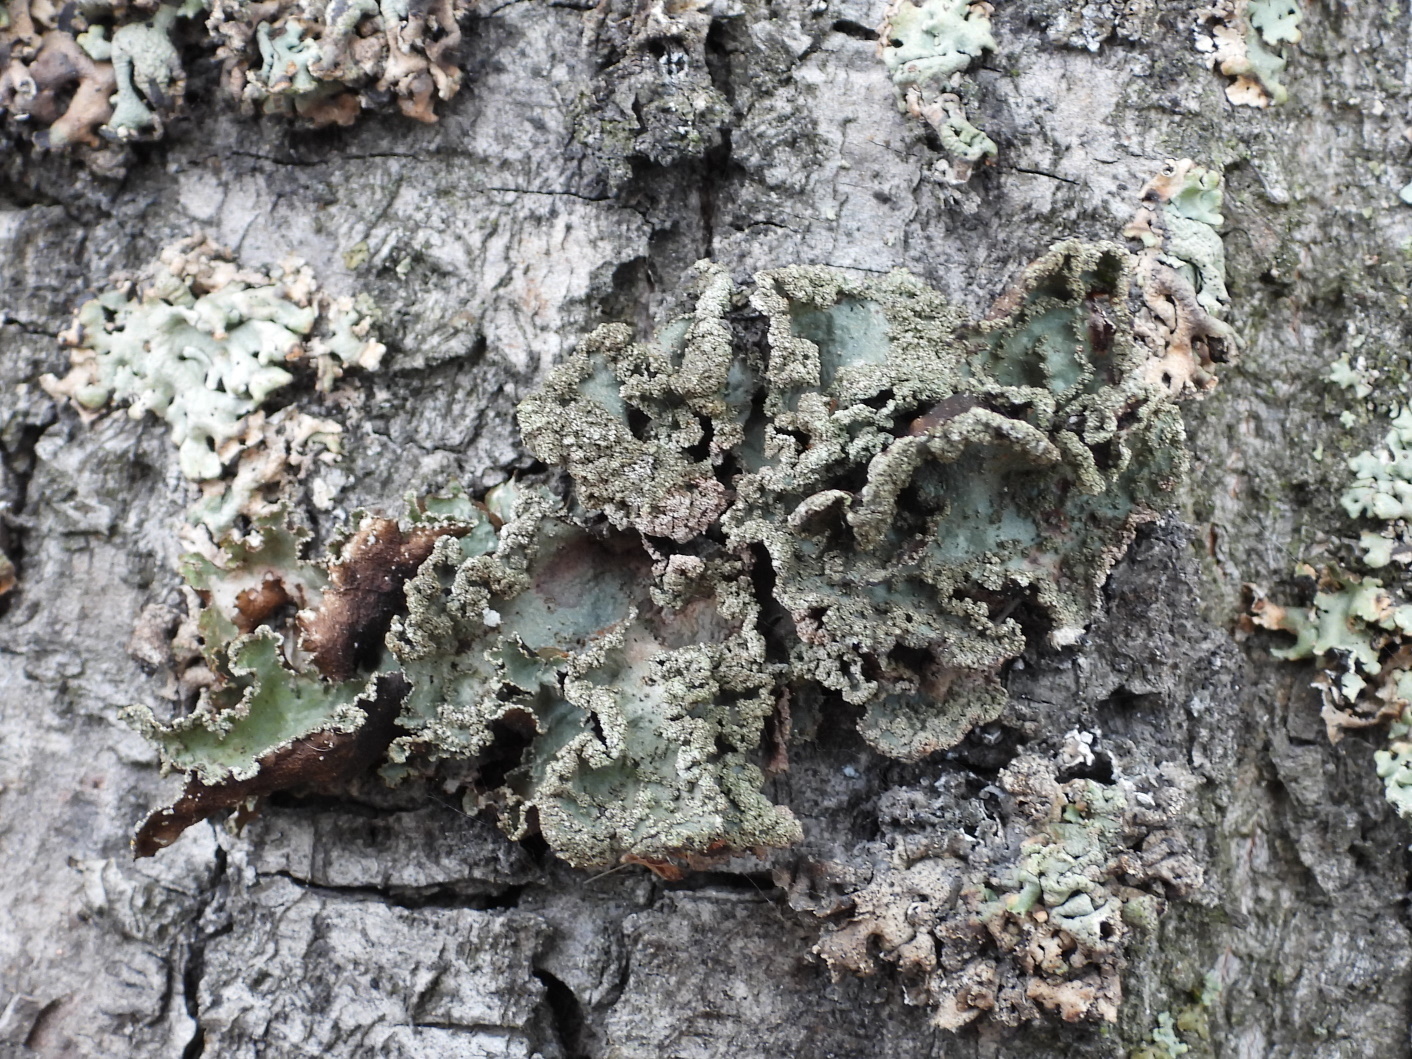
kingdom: Fungi
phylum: Ascomycota
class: Lecanoromycetes
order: Lecanorales
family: Parmeliaceae
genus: Platismatia
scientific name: Platismatia glauca
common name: Varied rag lichen
